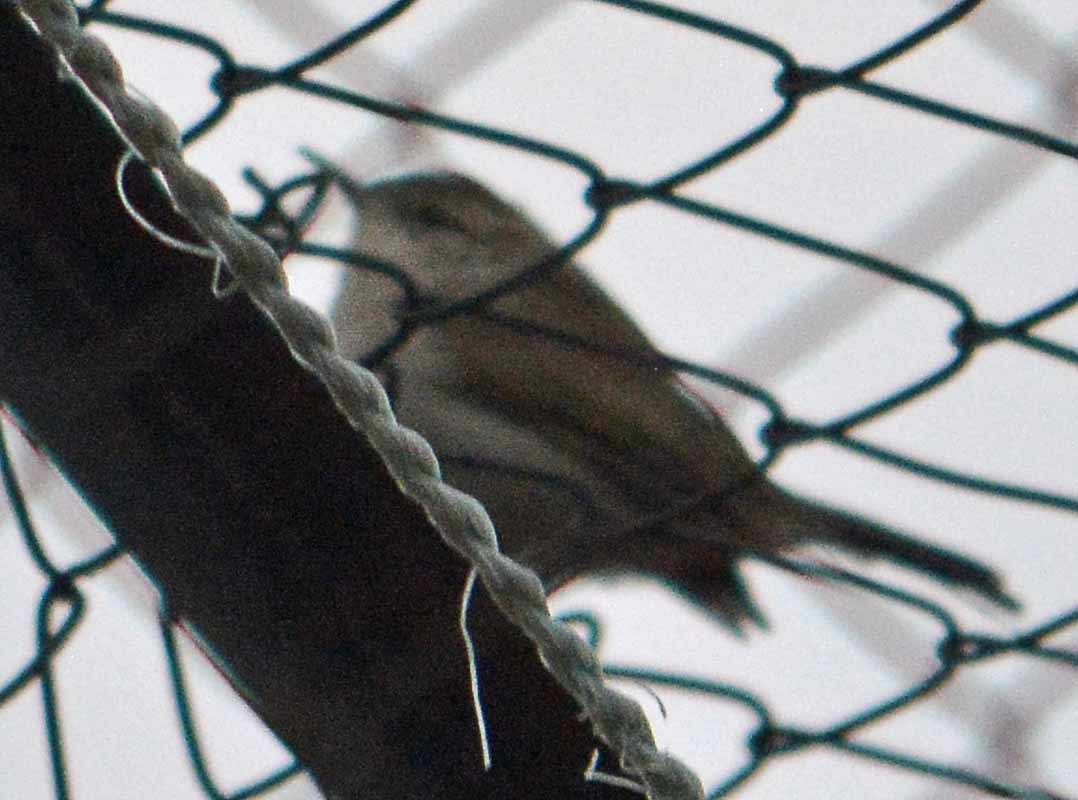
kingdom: Animalia
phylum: Chordata
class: Aves
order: Passeriformes
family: Troglodytidae
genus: Thryomanes
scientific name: Thryomanes bewickii
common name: Bewick's wren
